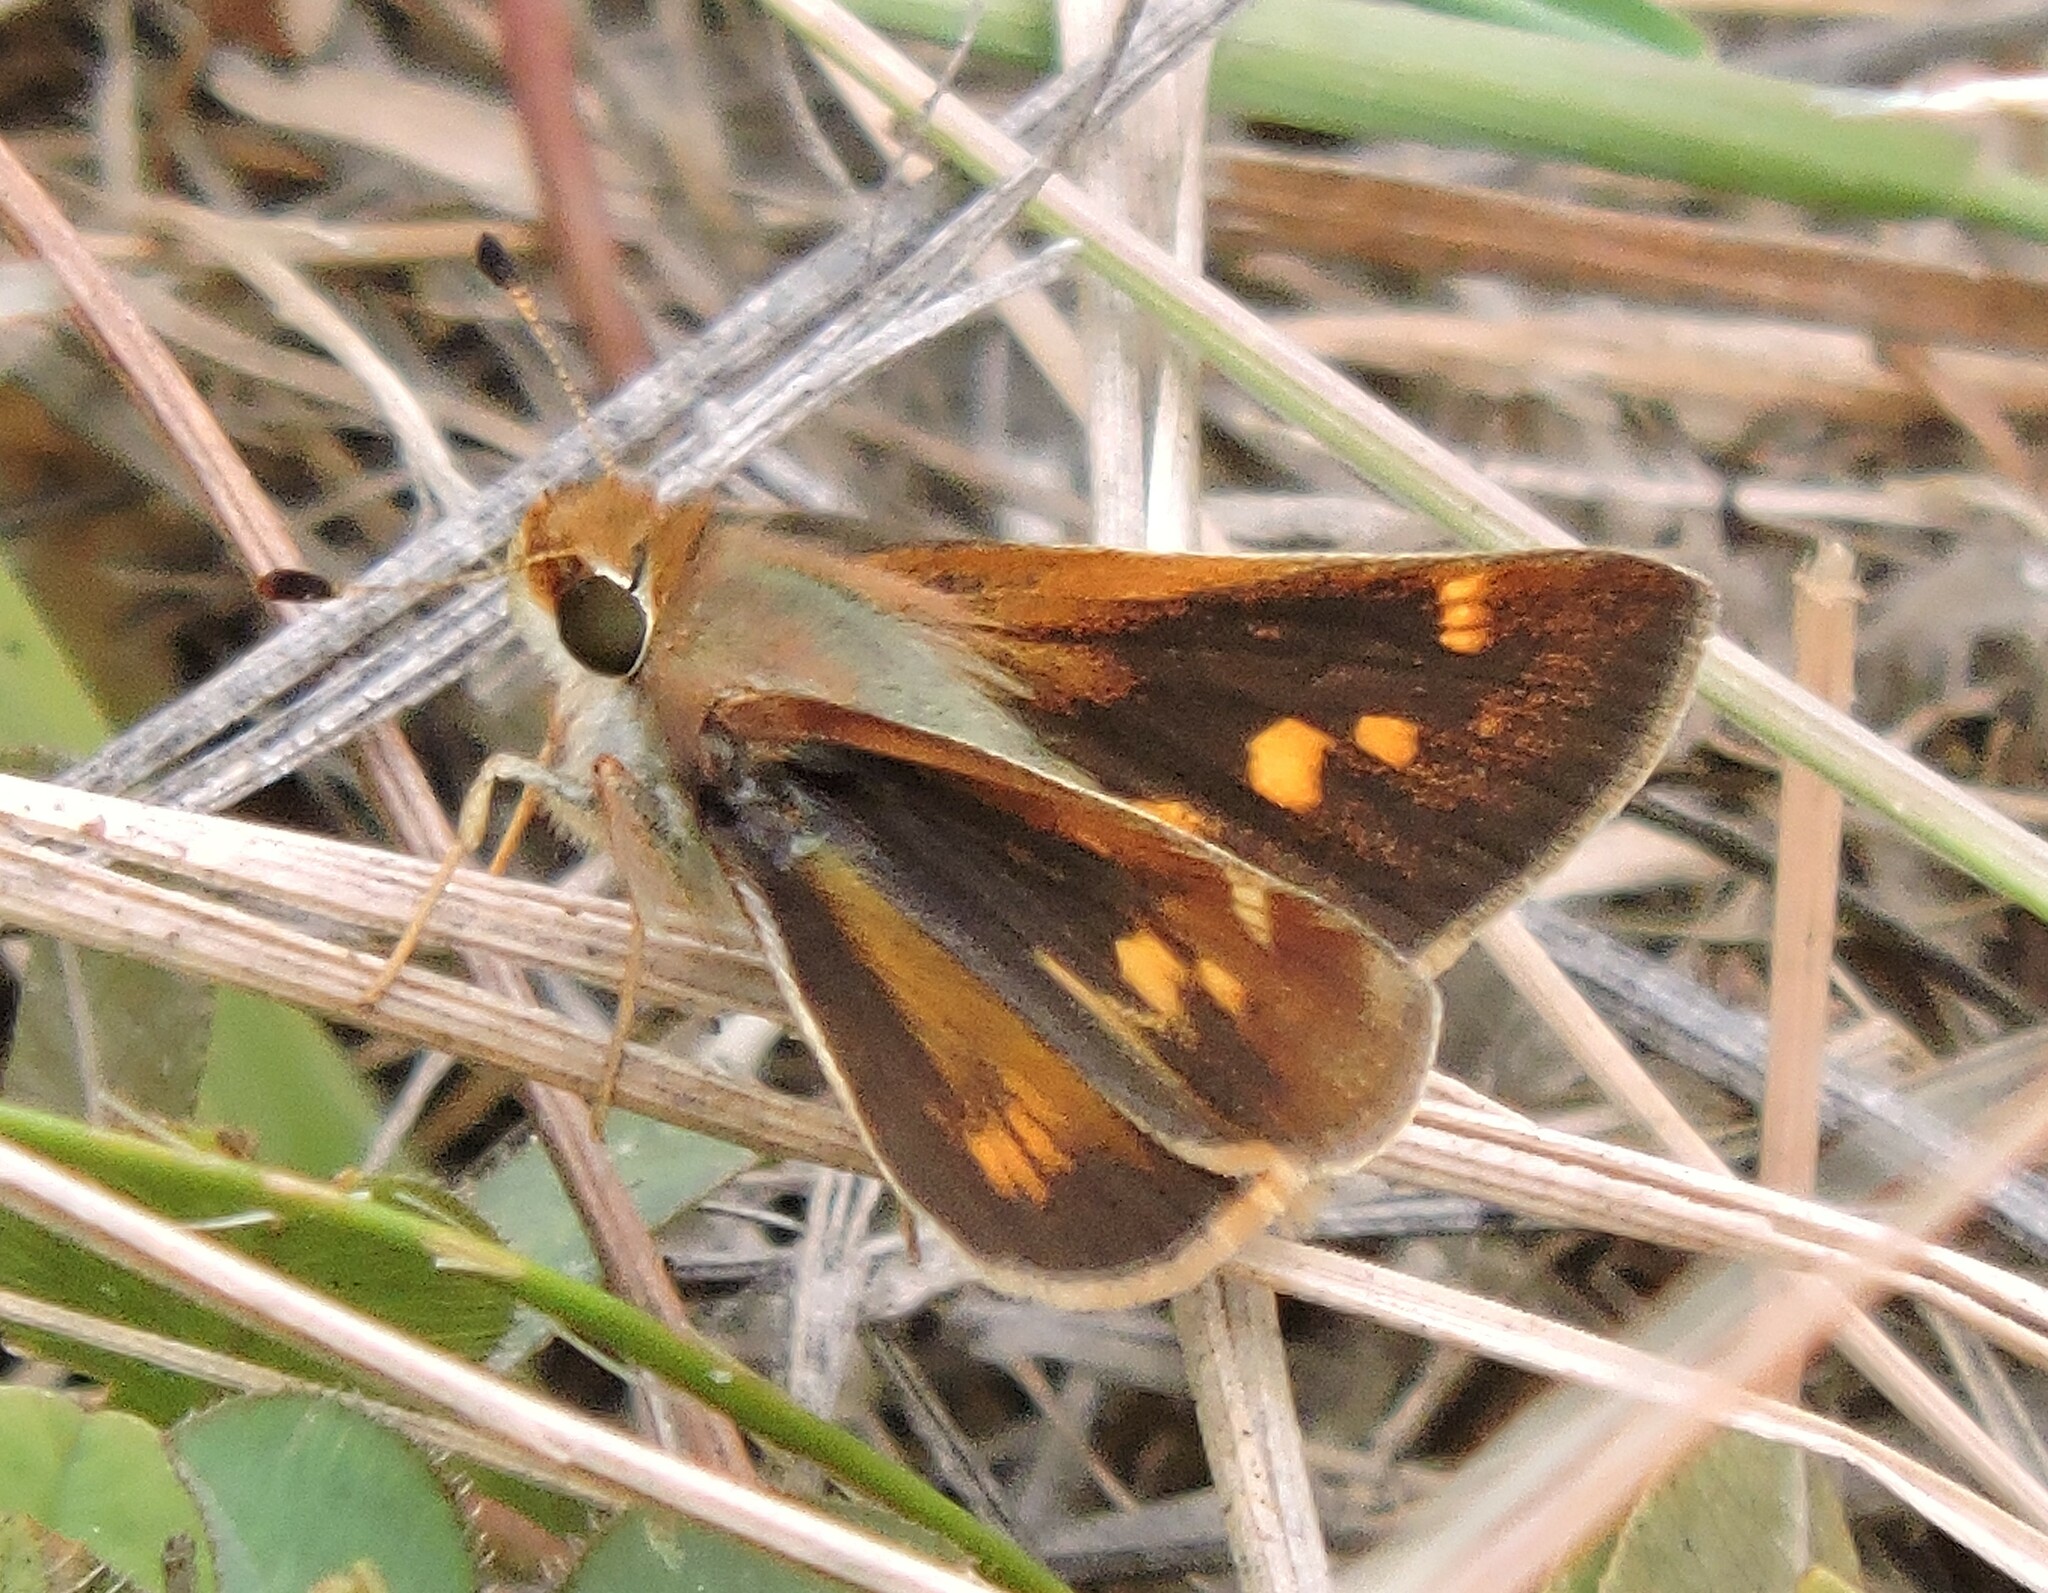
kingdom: Animalia
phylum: Arthropoda
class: Insecta
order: Lepidoptera
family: Hesperiidae
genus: Lon
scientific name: Lon melane
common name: Umber skipper
